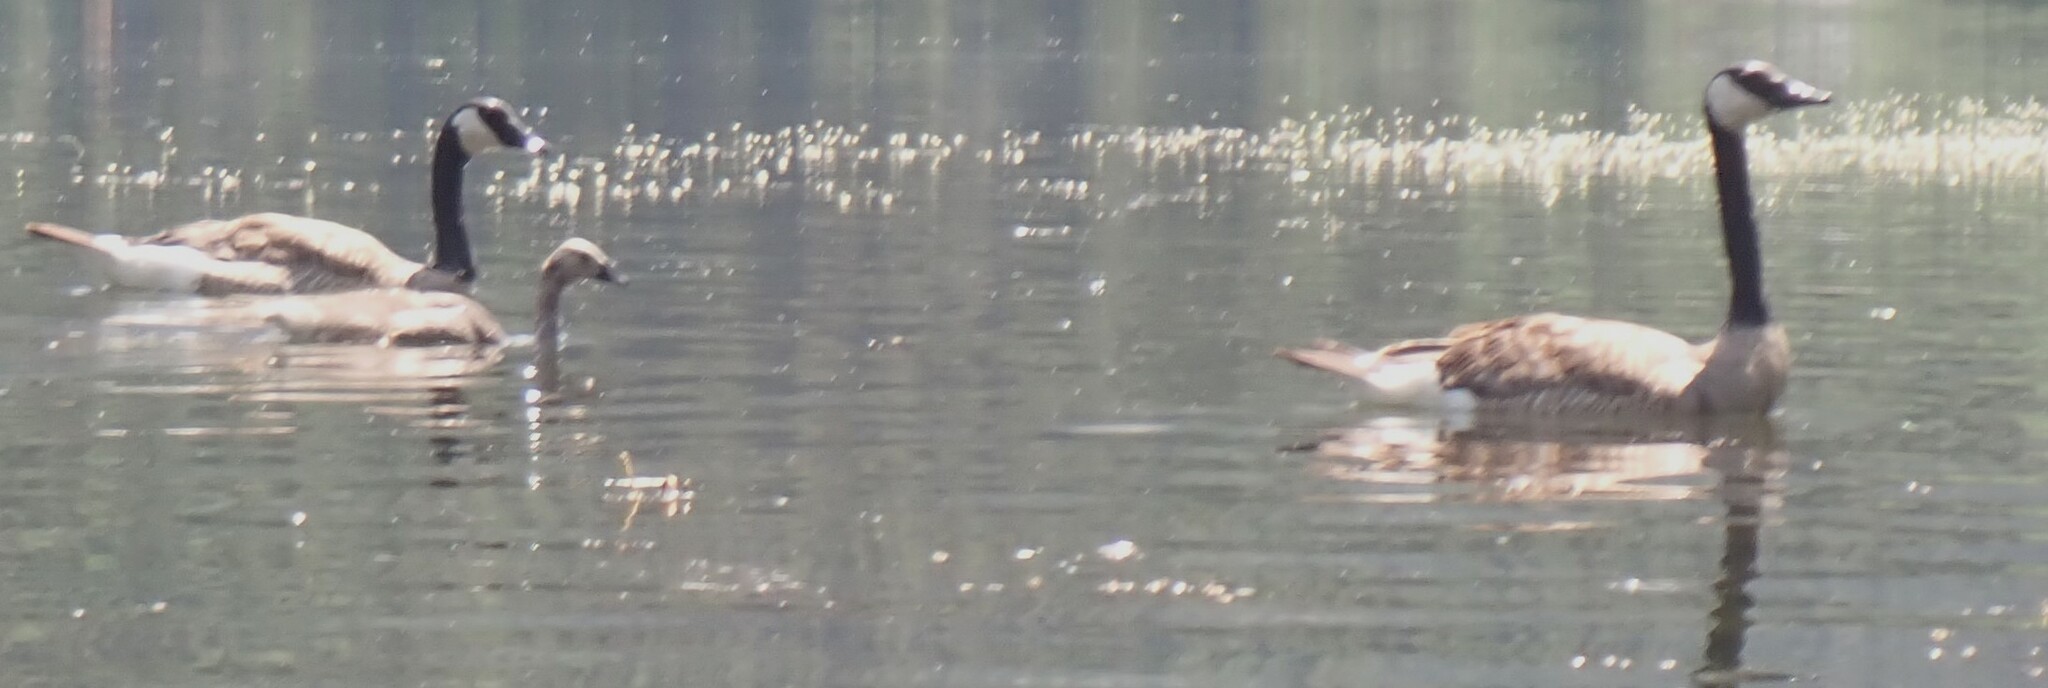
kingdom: Animalia
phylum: Chordata
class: Aves
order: Anseriformes
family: Anatidae
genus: Branta
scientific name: Branta canadensis
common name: Canada goose
